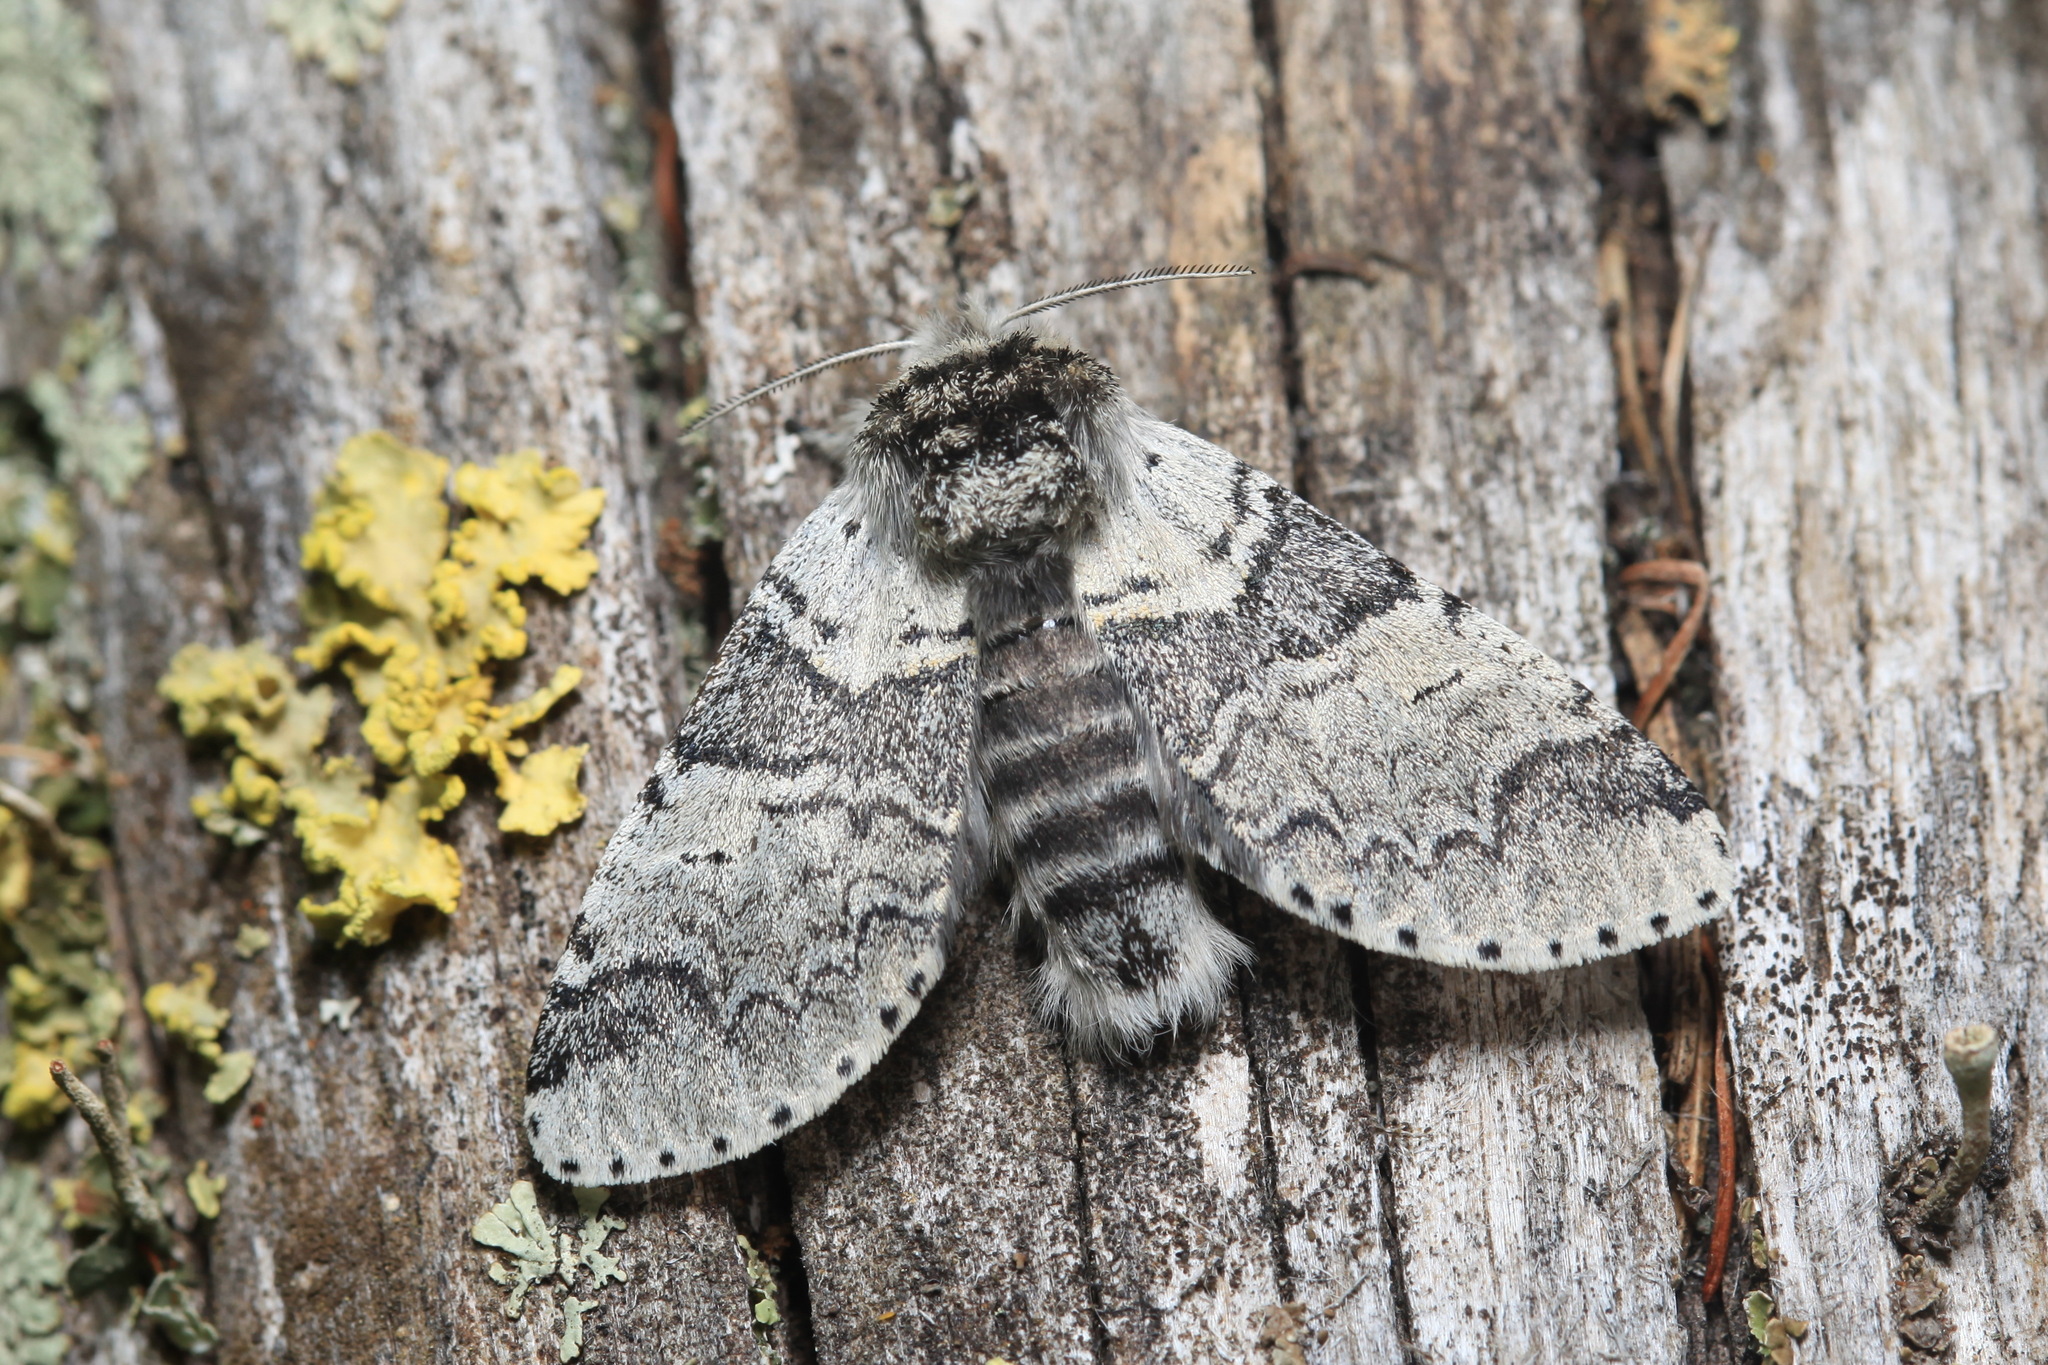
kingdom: Animalia
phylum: Arthropoda
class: Insecta
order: Lepidoptera
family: Notodontidae
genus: Furcula
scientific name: Furcula aeruginosa
